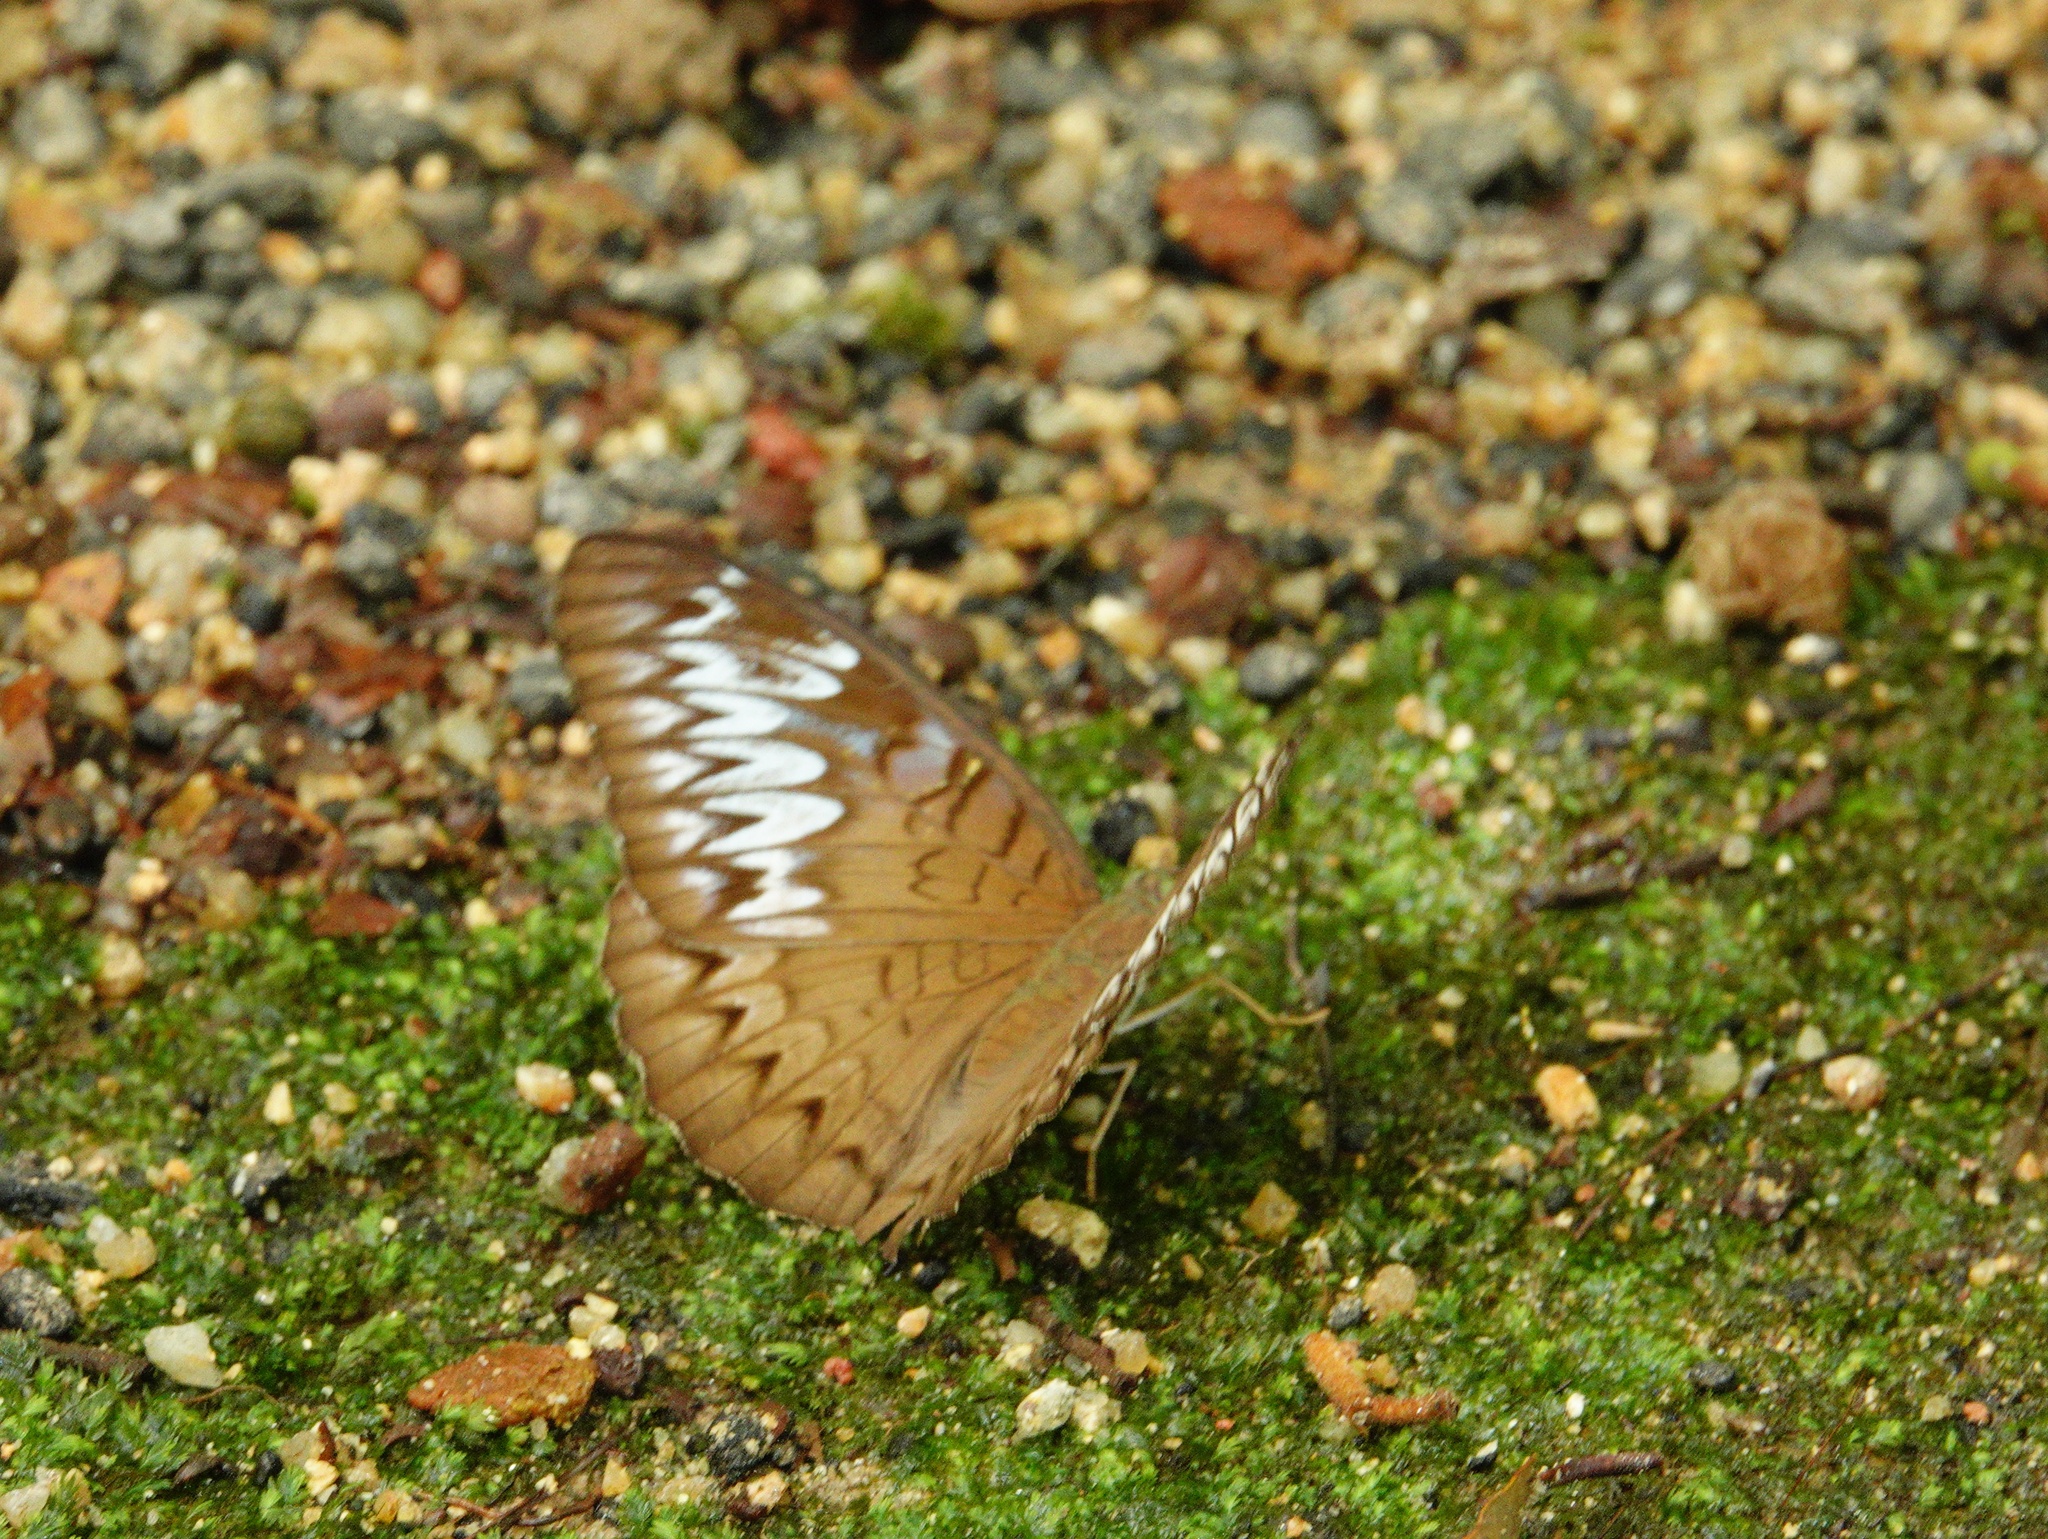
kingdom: Animalia
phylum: Arthropoda
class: Insecta
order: Lepidoptera
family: Nymphalidae
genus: Tanaecia
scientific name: Tanaecia pelea
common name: Malay viscount
